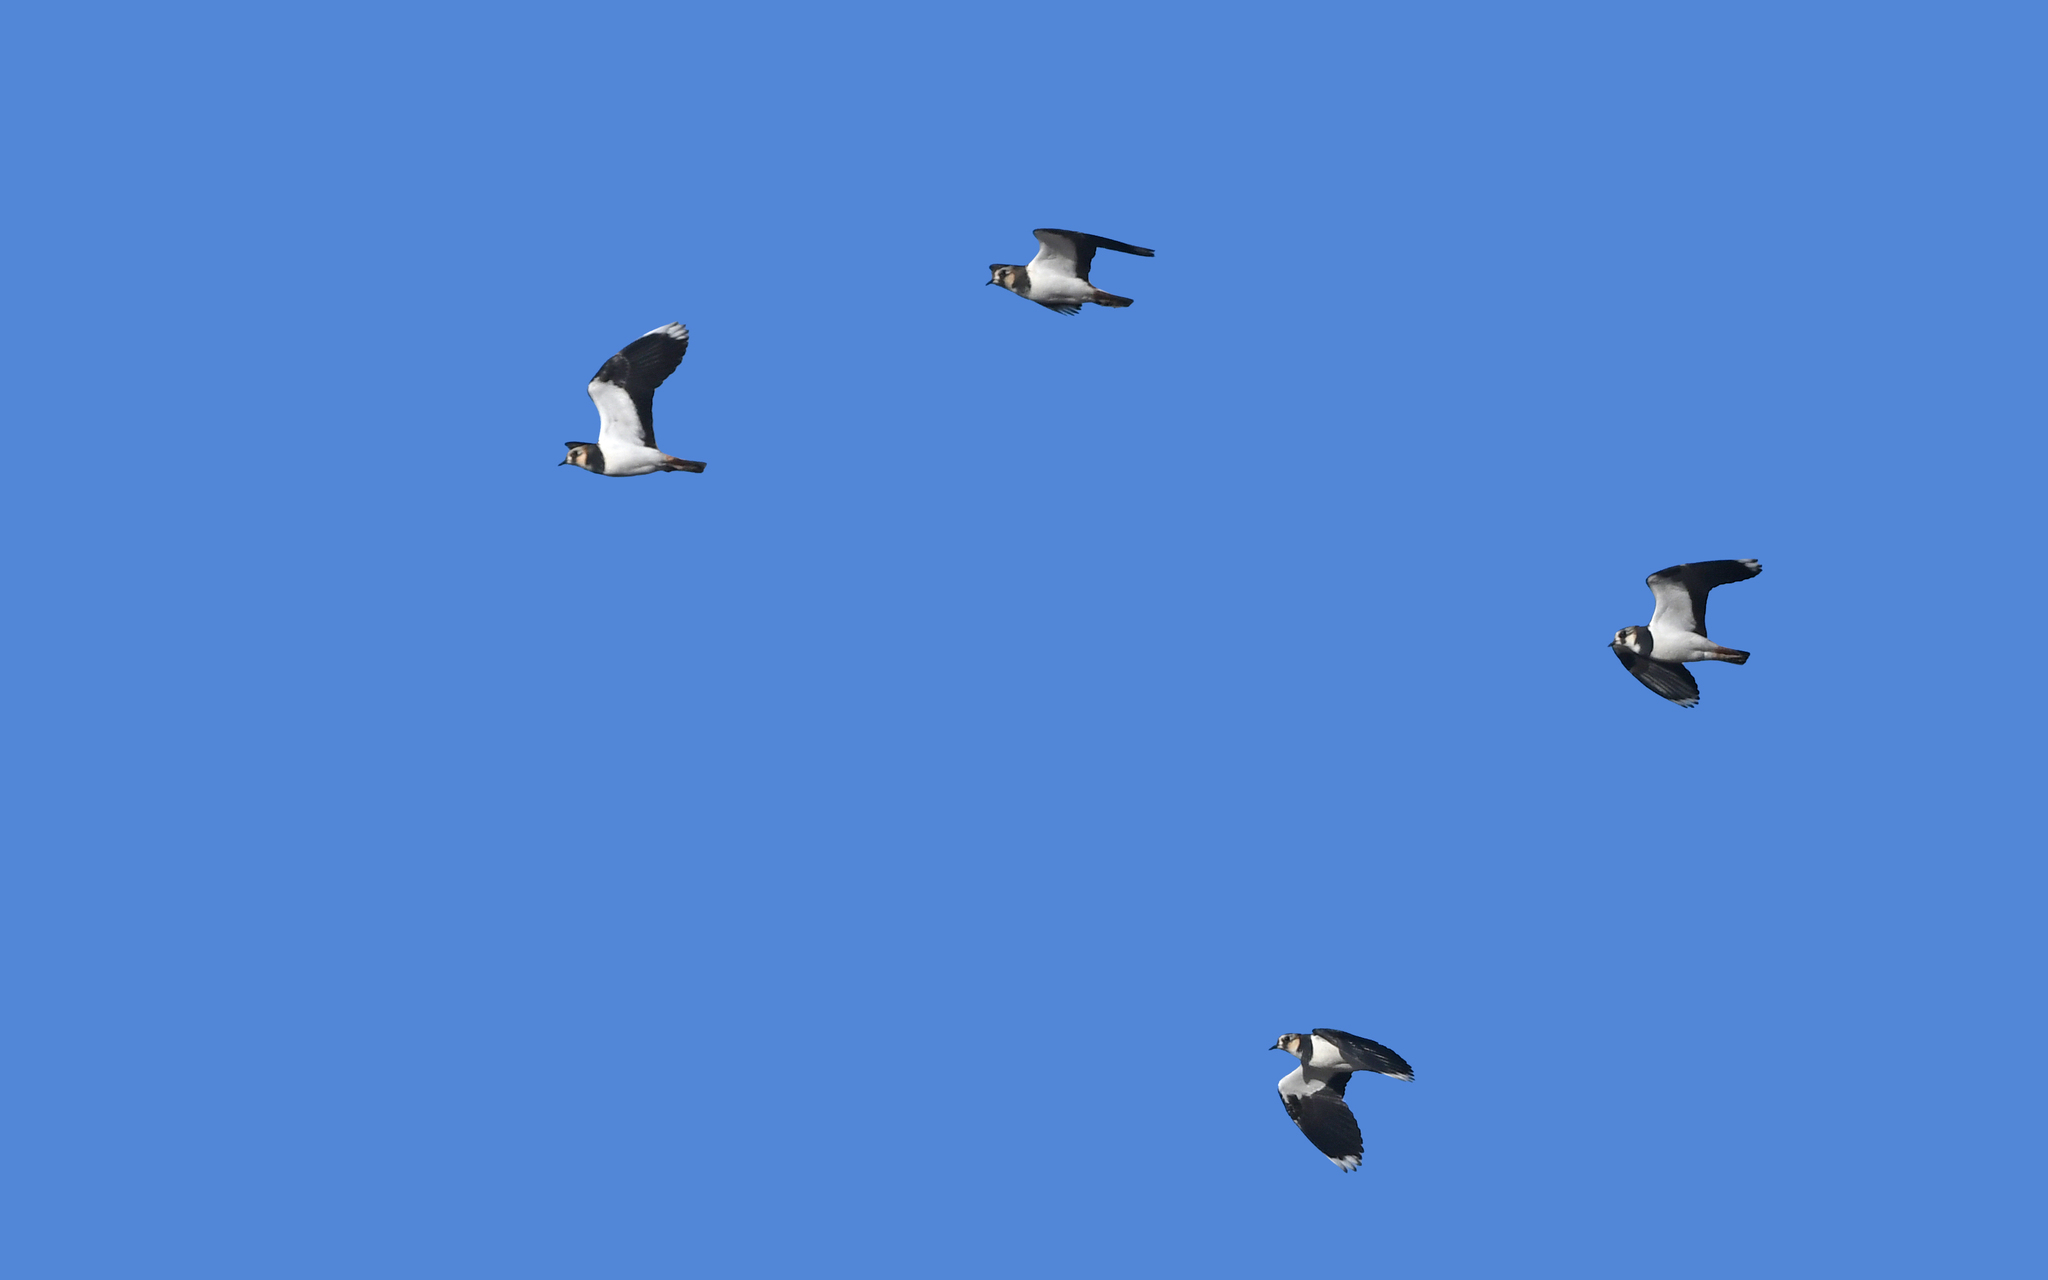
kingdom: Animalia
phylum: Chordata
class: Aves
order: Charadriiformes
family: Charadriidae
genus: Vanellus
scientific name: Vanellus vanellus
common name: Northern lapwing
